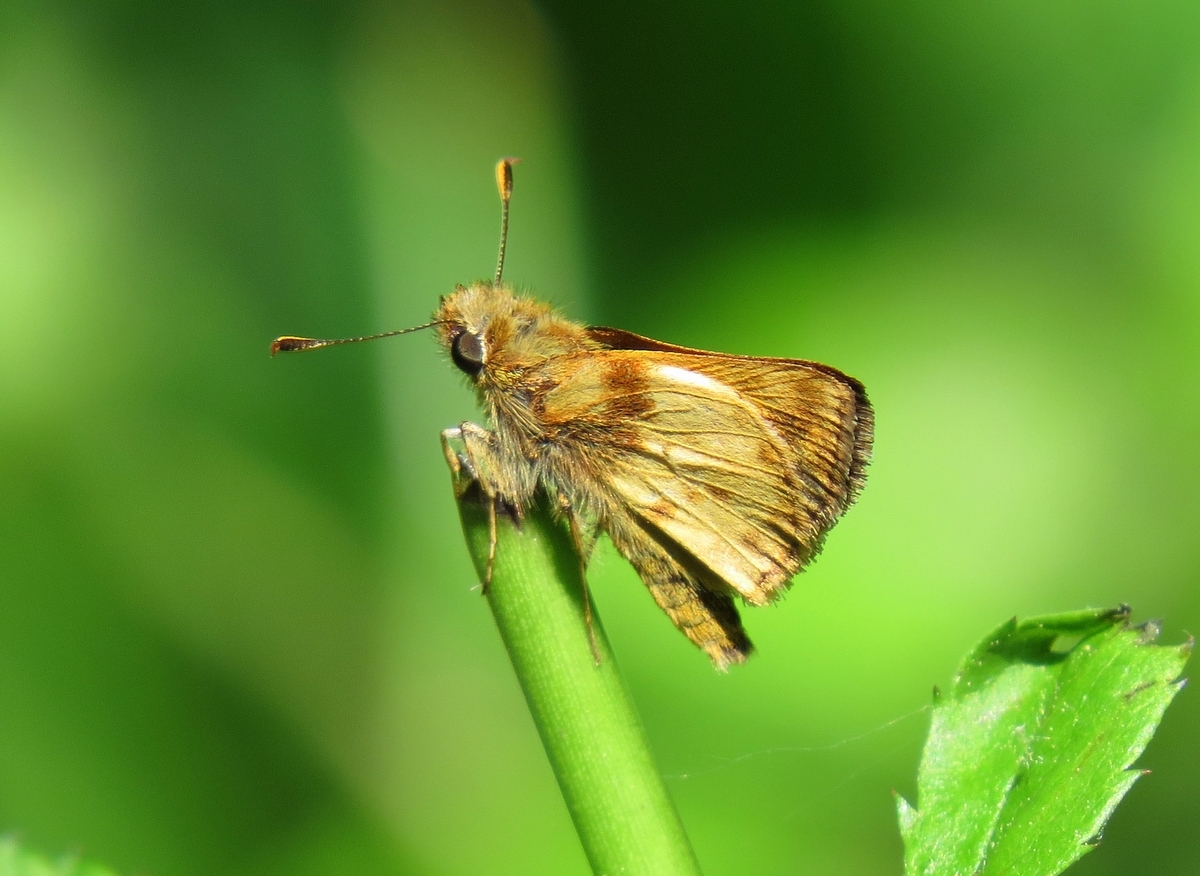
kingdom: Animalia
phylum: Arthropoda
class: Insecta
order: Lepidoptera
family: Hesperiidae
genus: Lon
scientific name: Lon zabulon
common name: Zabulon skipper
